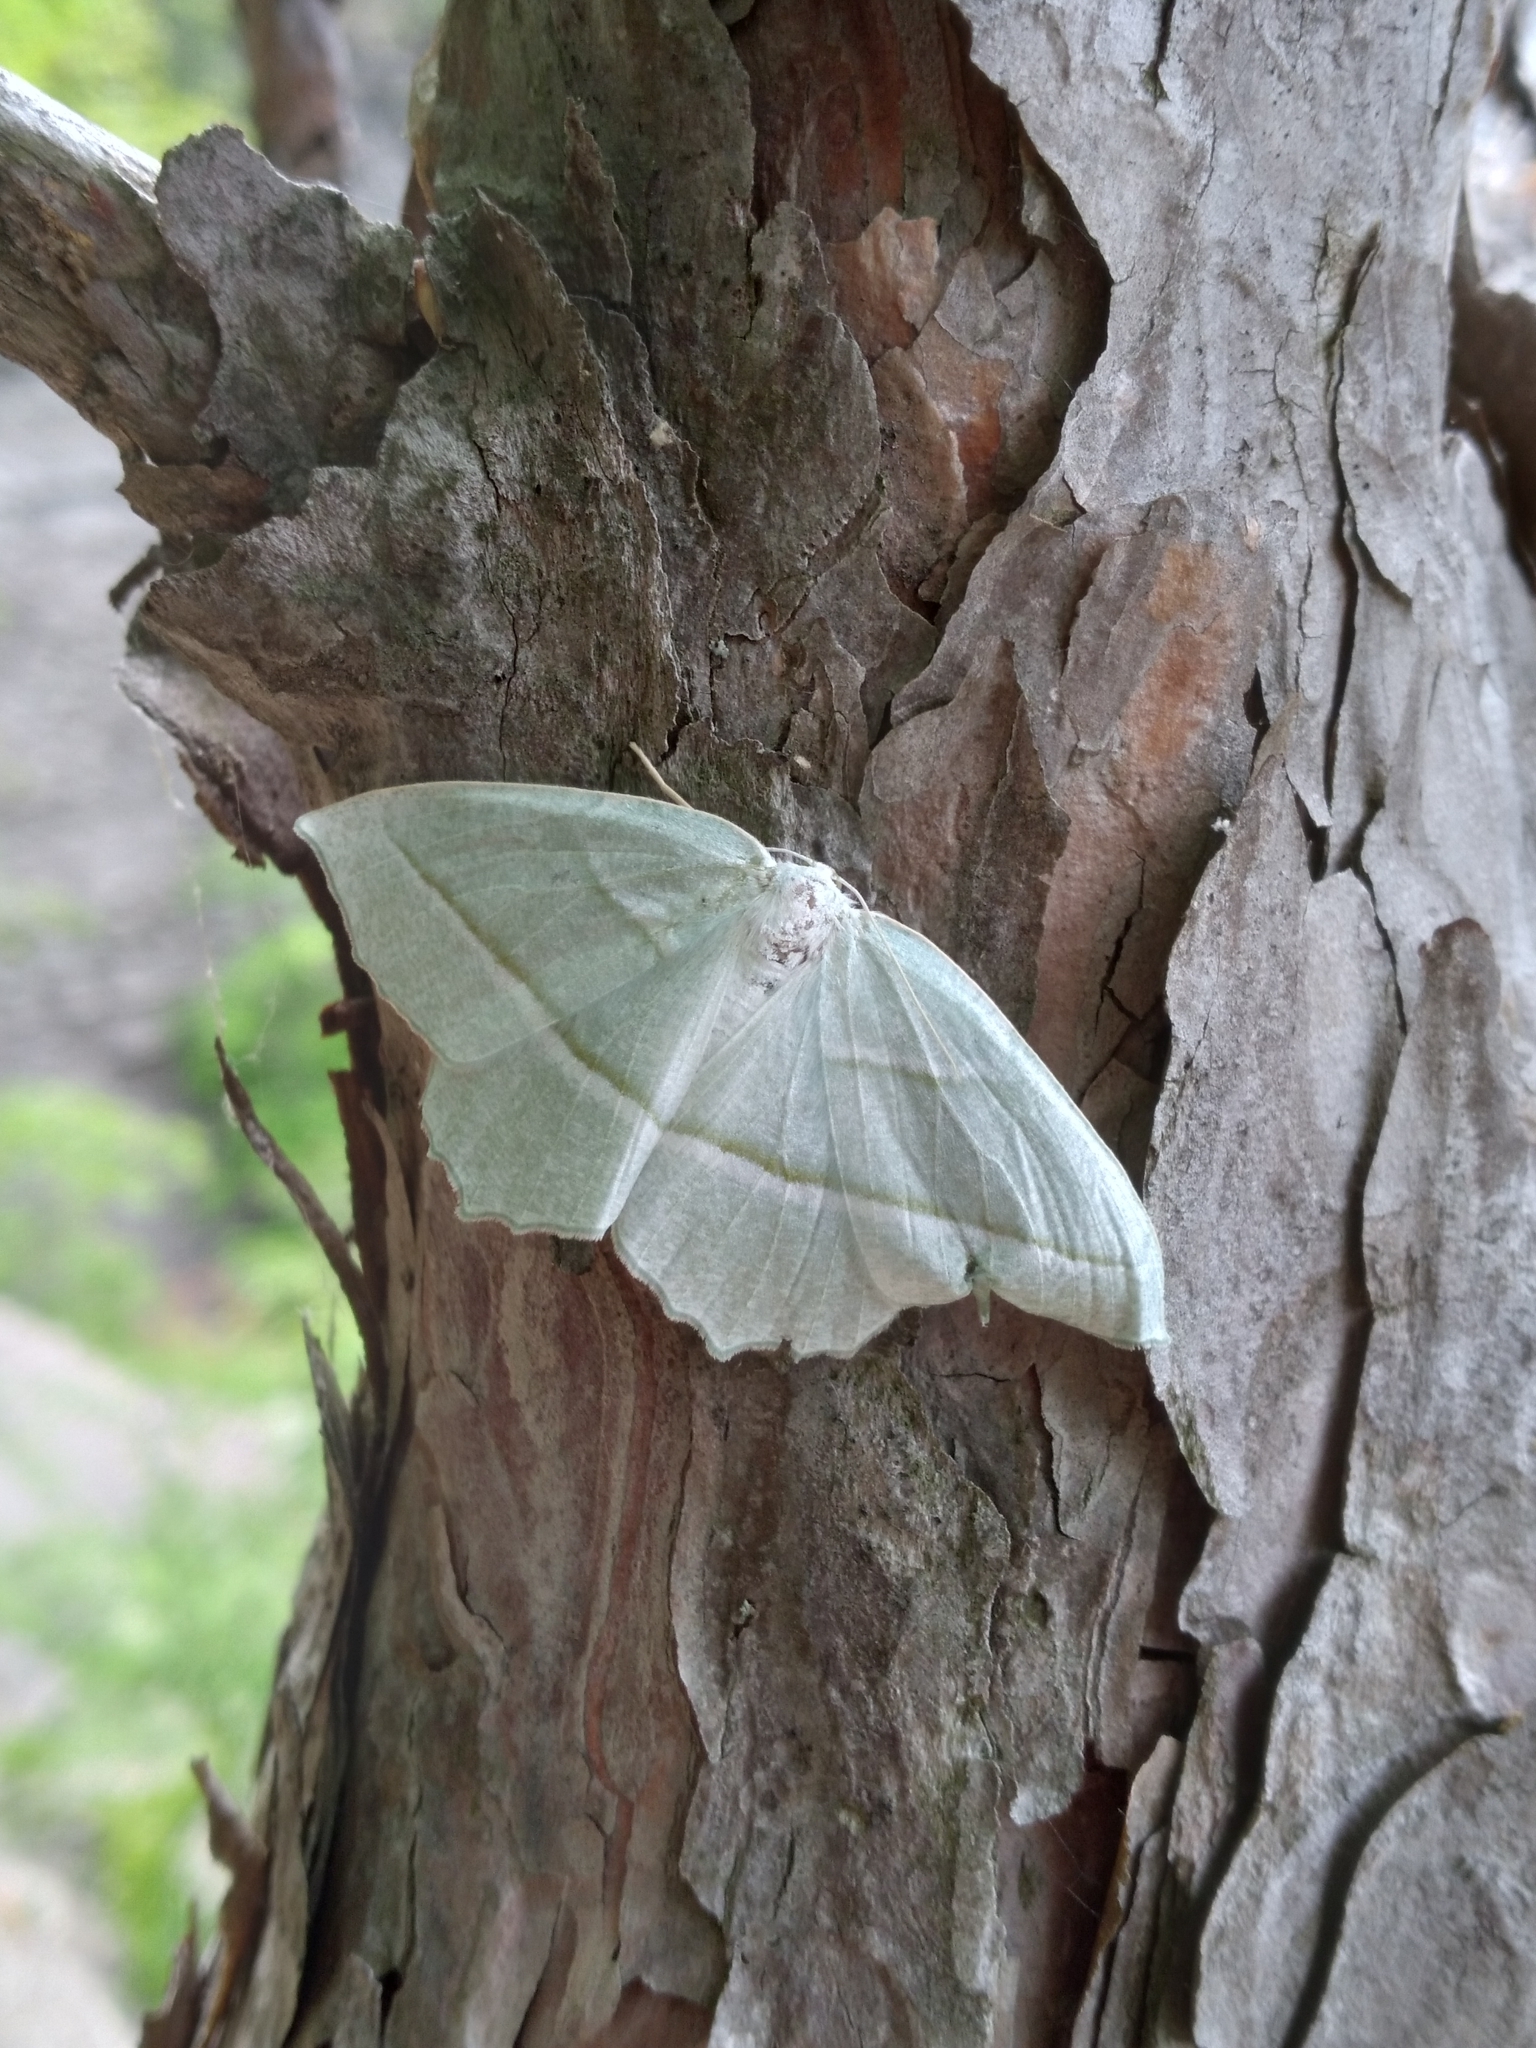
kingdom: Animalia
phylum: Arthropoda
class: Insecta
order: Lepidoptera
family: Geometridae
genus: Campaea
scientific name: Campaea perlata
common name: Fringed looper
